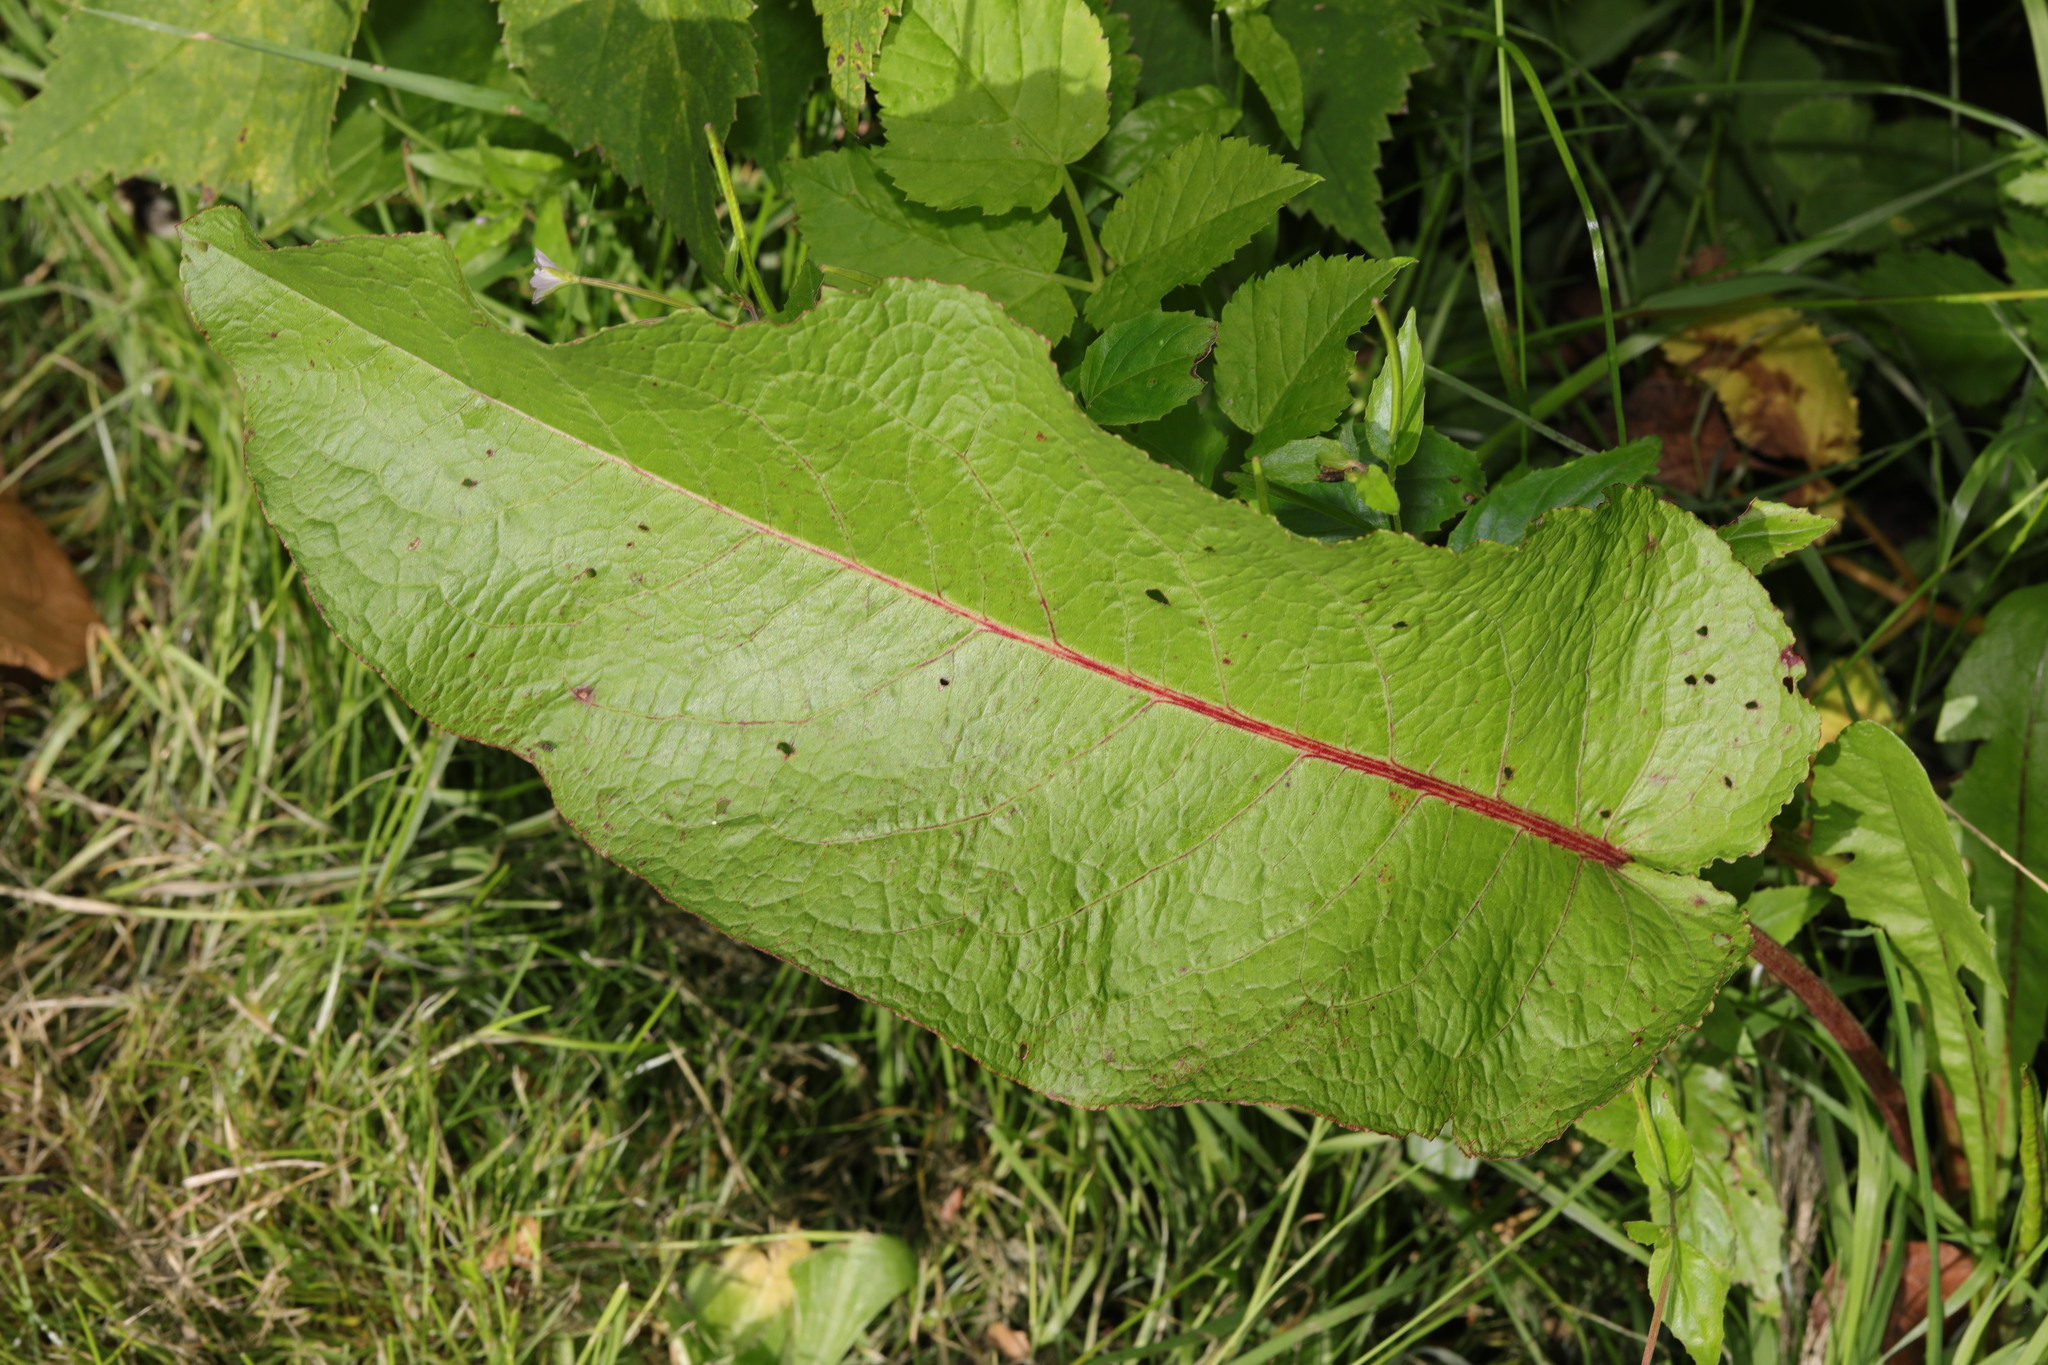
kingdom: Plantae
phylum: Tracheophyta
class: Magnoliopsida
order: Caryophyllales
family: Polygonaceae
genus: Rumex
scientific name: Rumex obtusifolius
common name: Bitter dock
